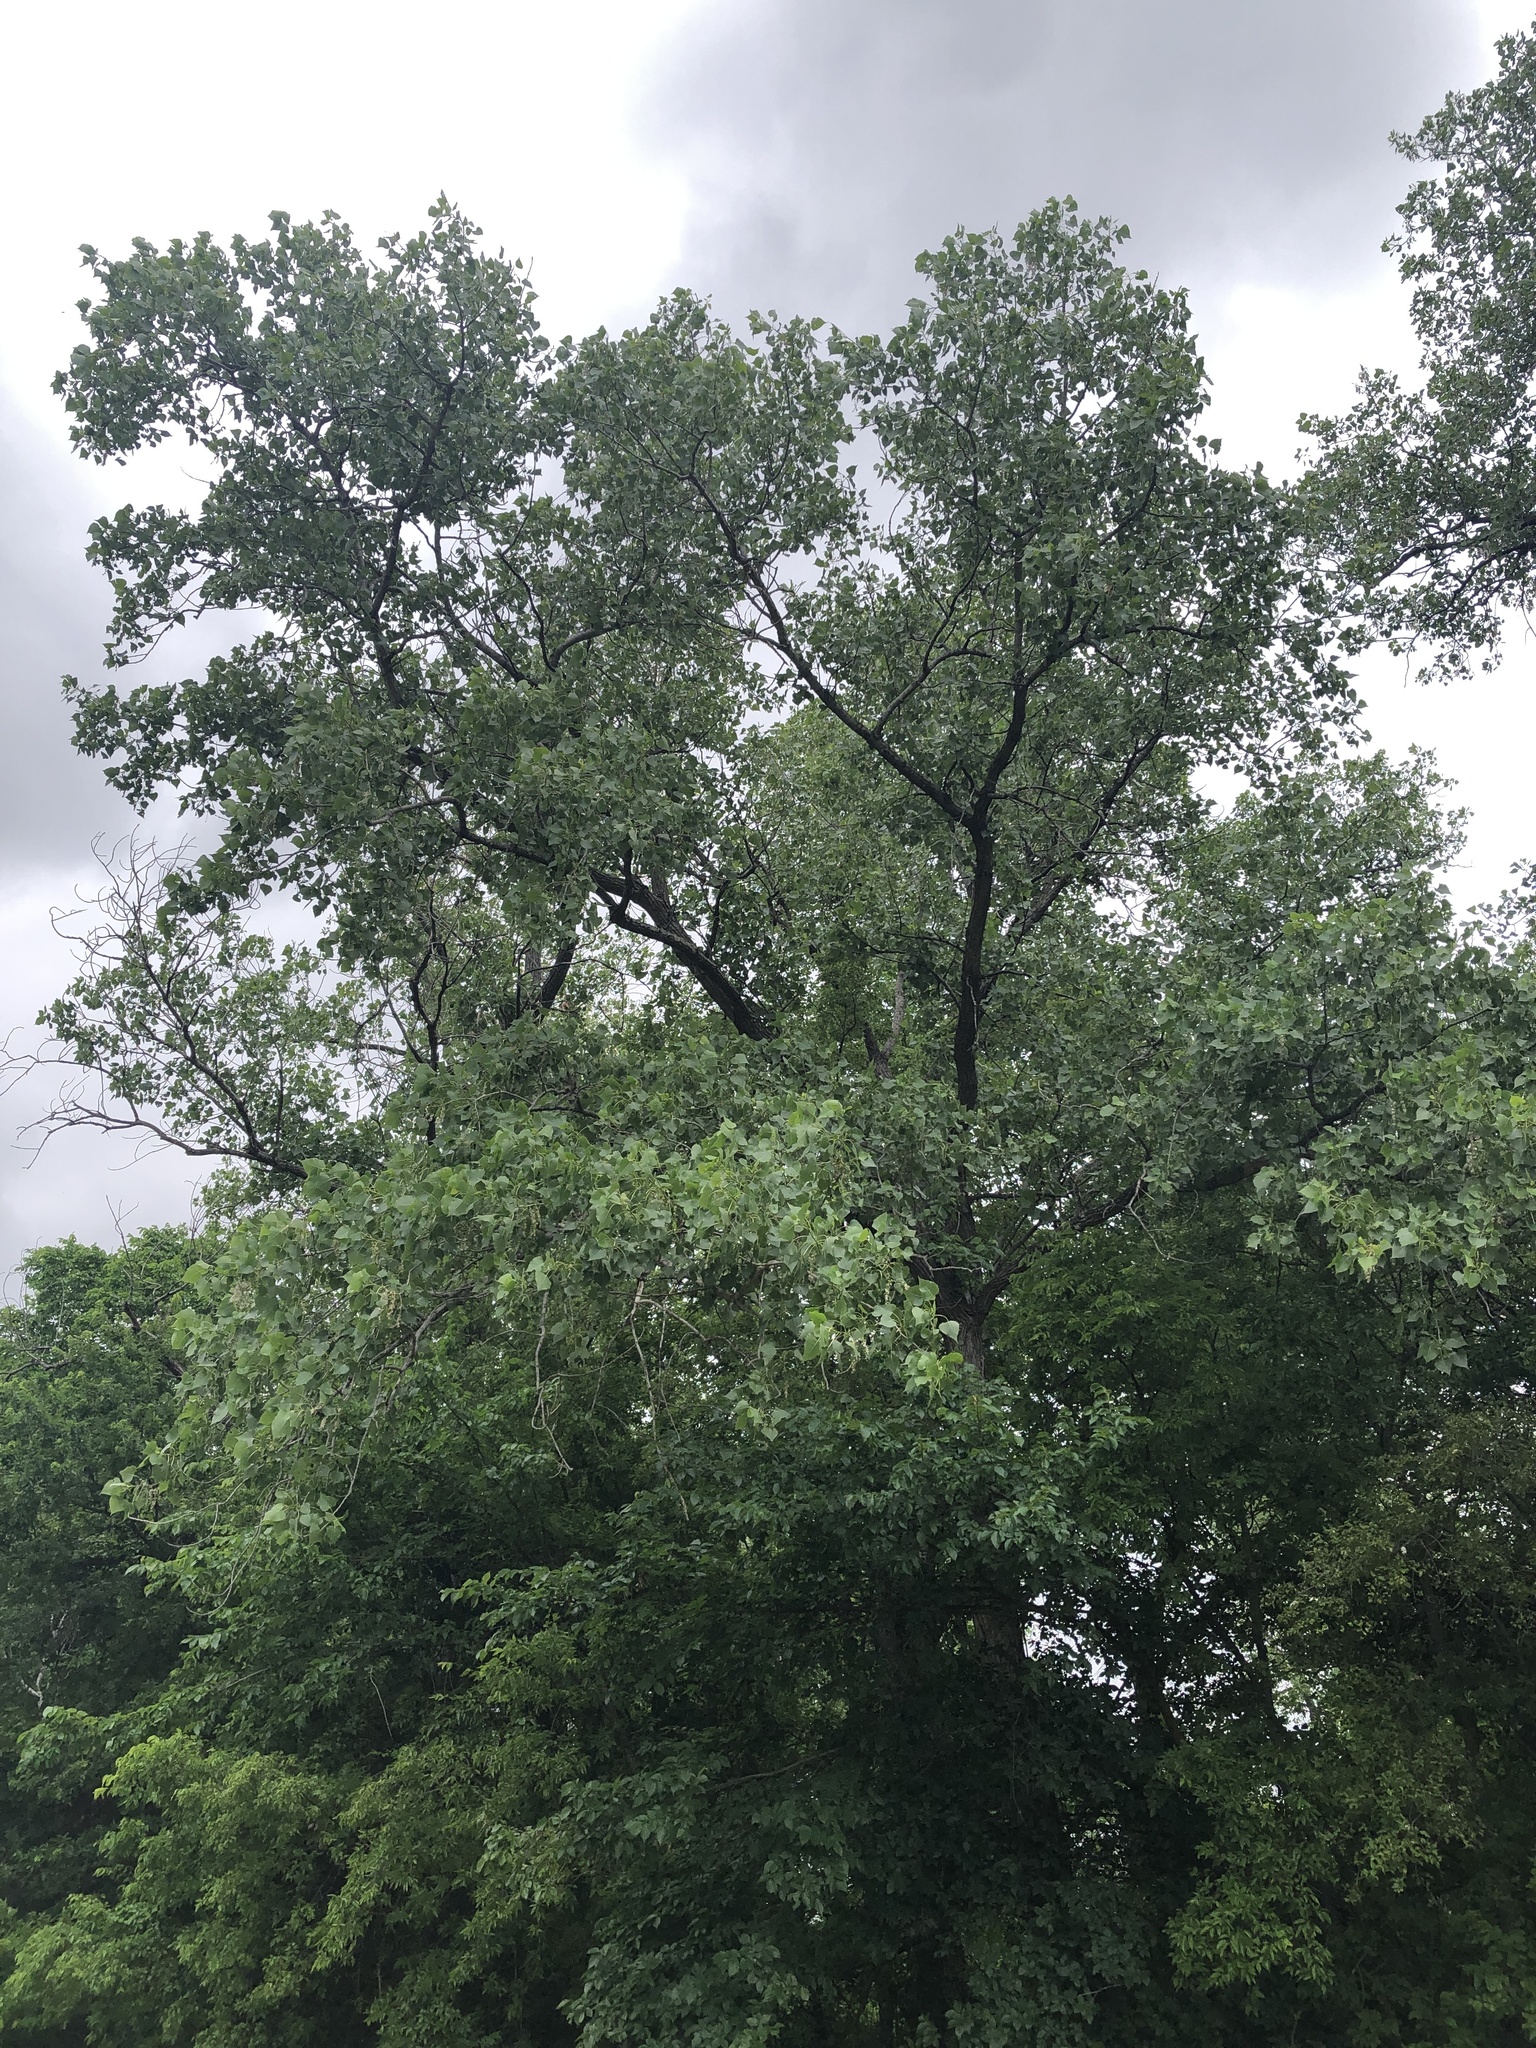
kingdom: Plantae
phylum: Tracheophyta
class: Magnoliopsida
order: Malpighiales
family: Salicaceae
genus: Populus
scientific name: Populus deltoides
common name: Eastern cottonwood
